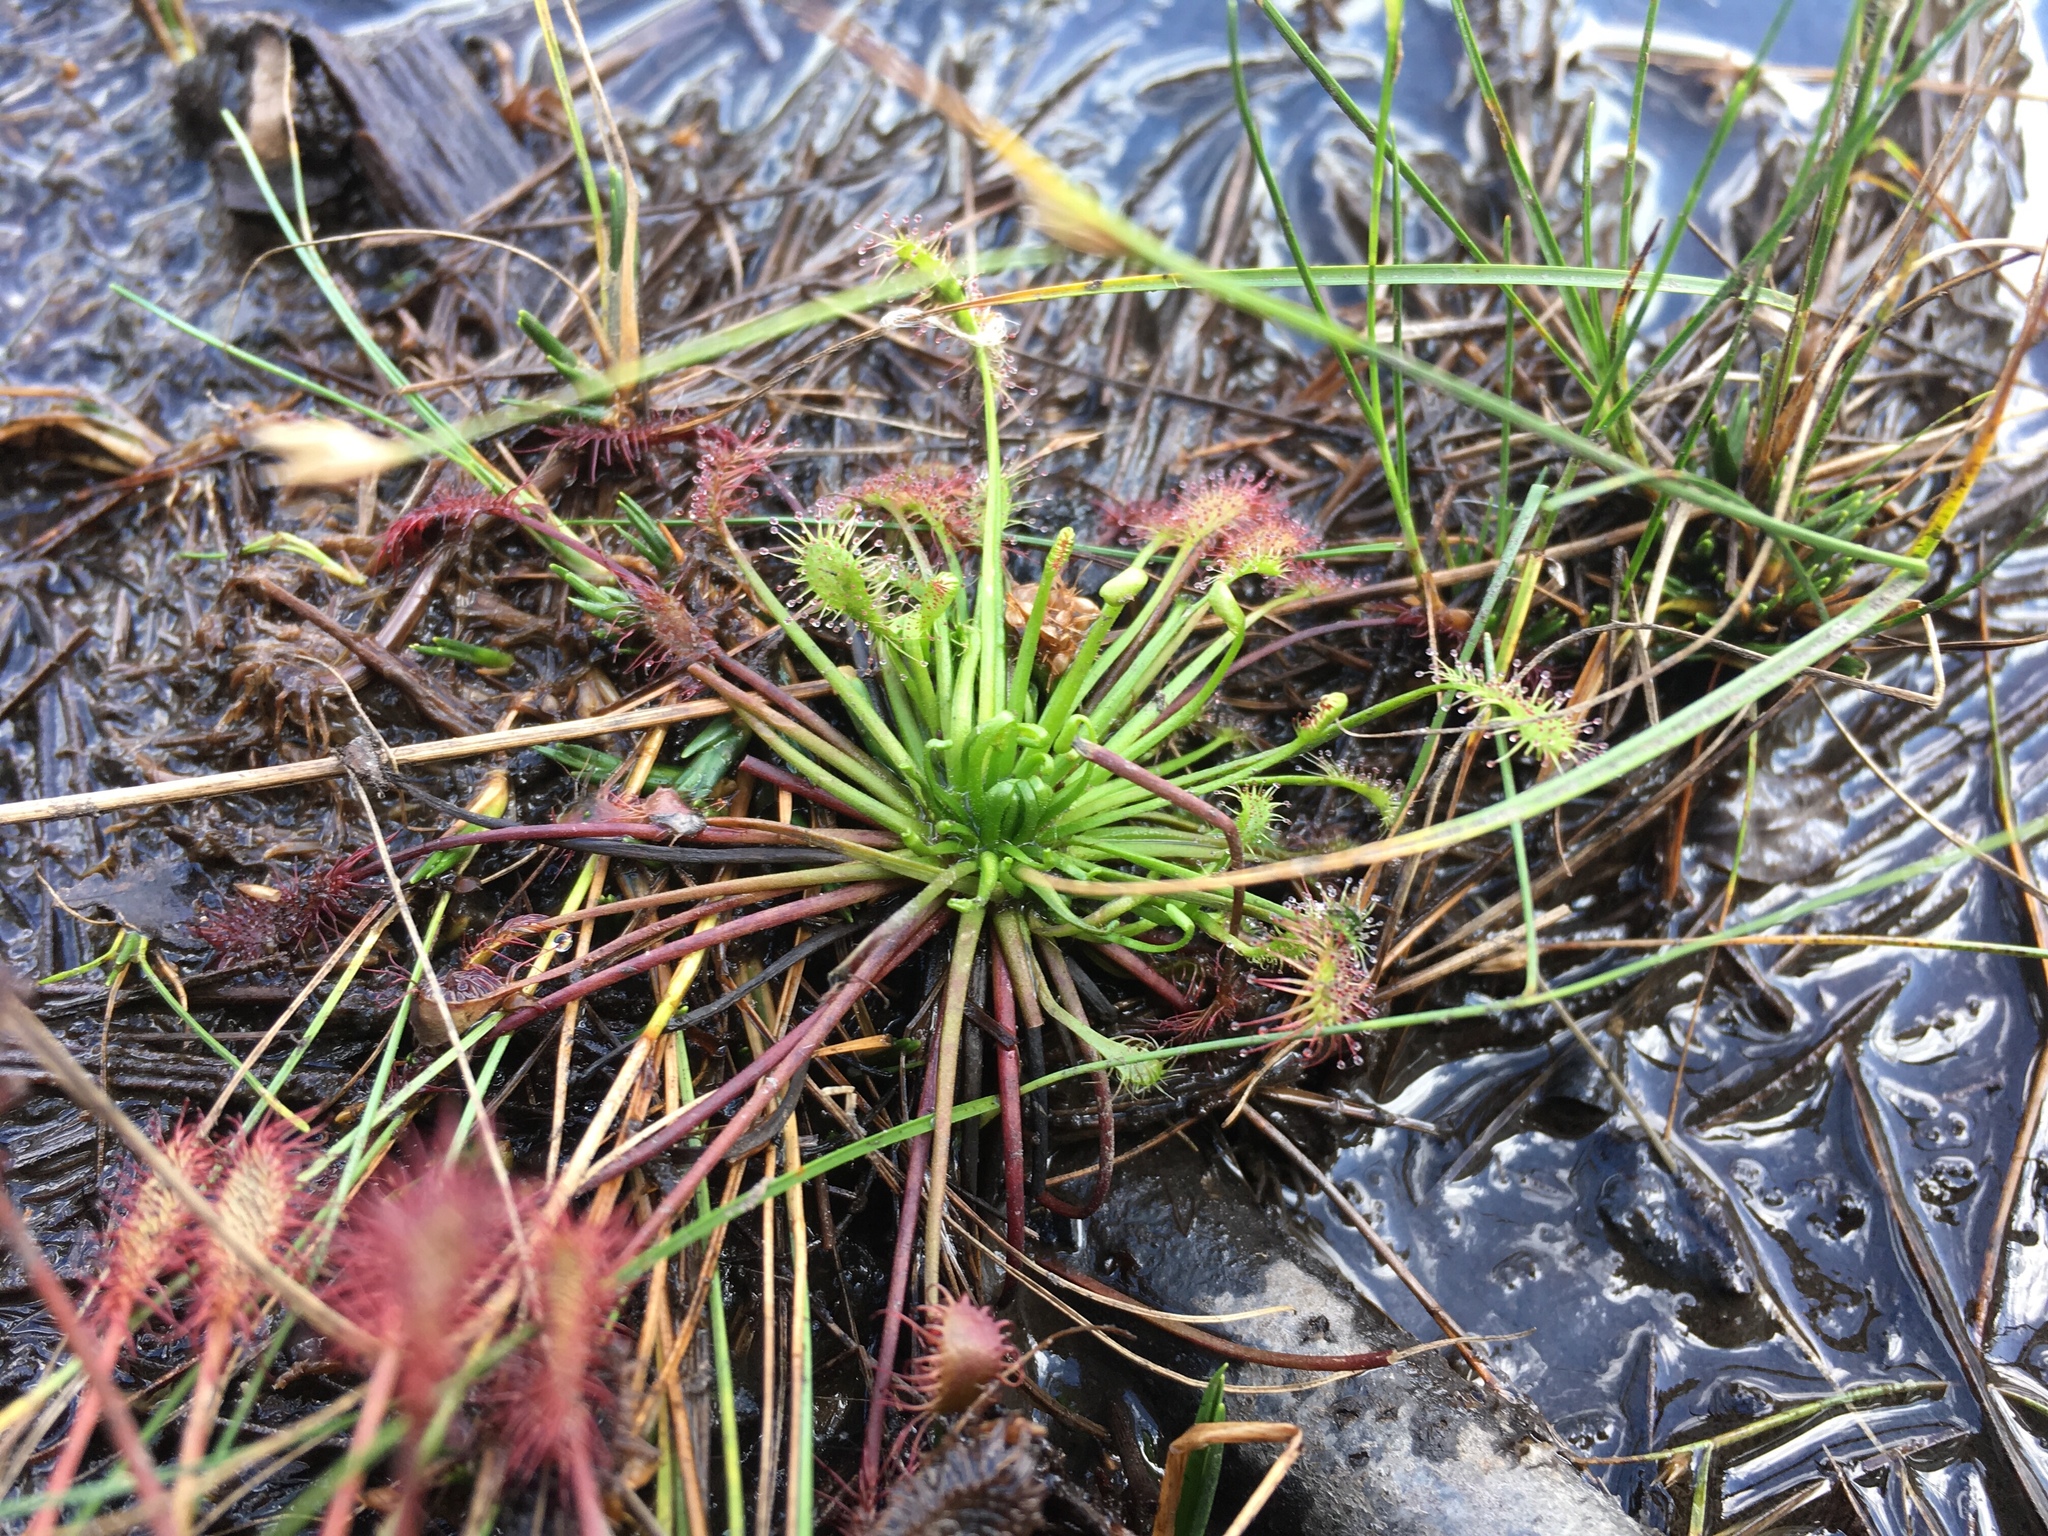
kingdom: Plantae
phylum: Tracheophyta
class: Magnoliopsida
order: Caryophyllales
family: Droseraceae
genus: Drosera
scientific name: Drosera intermedia
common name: Oblong-leaved sundew
